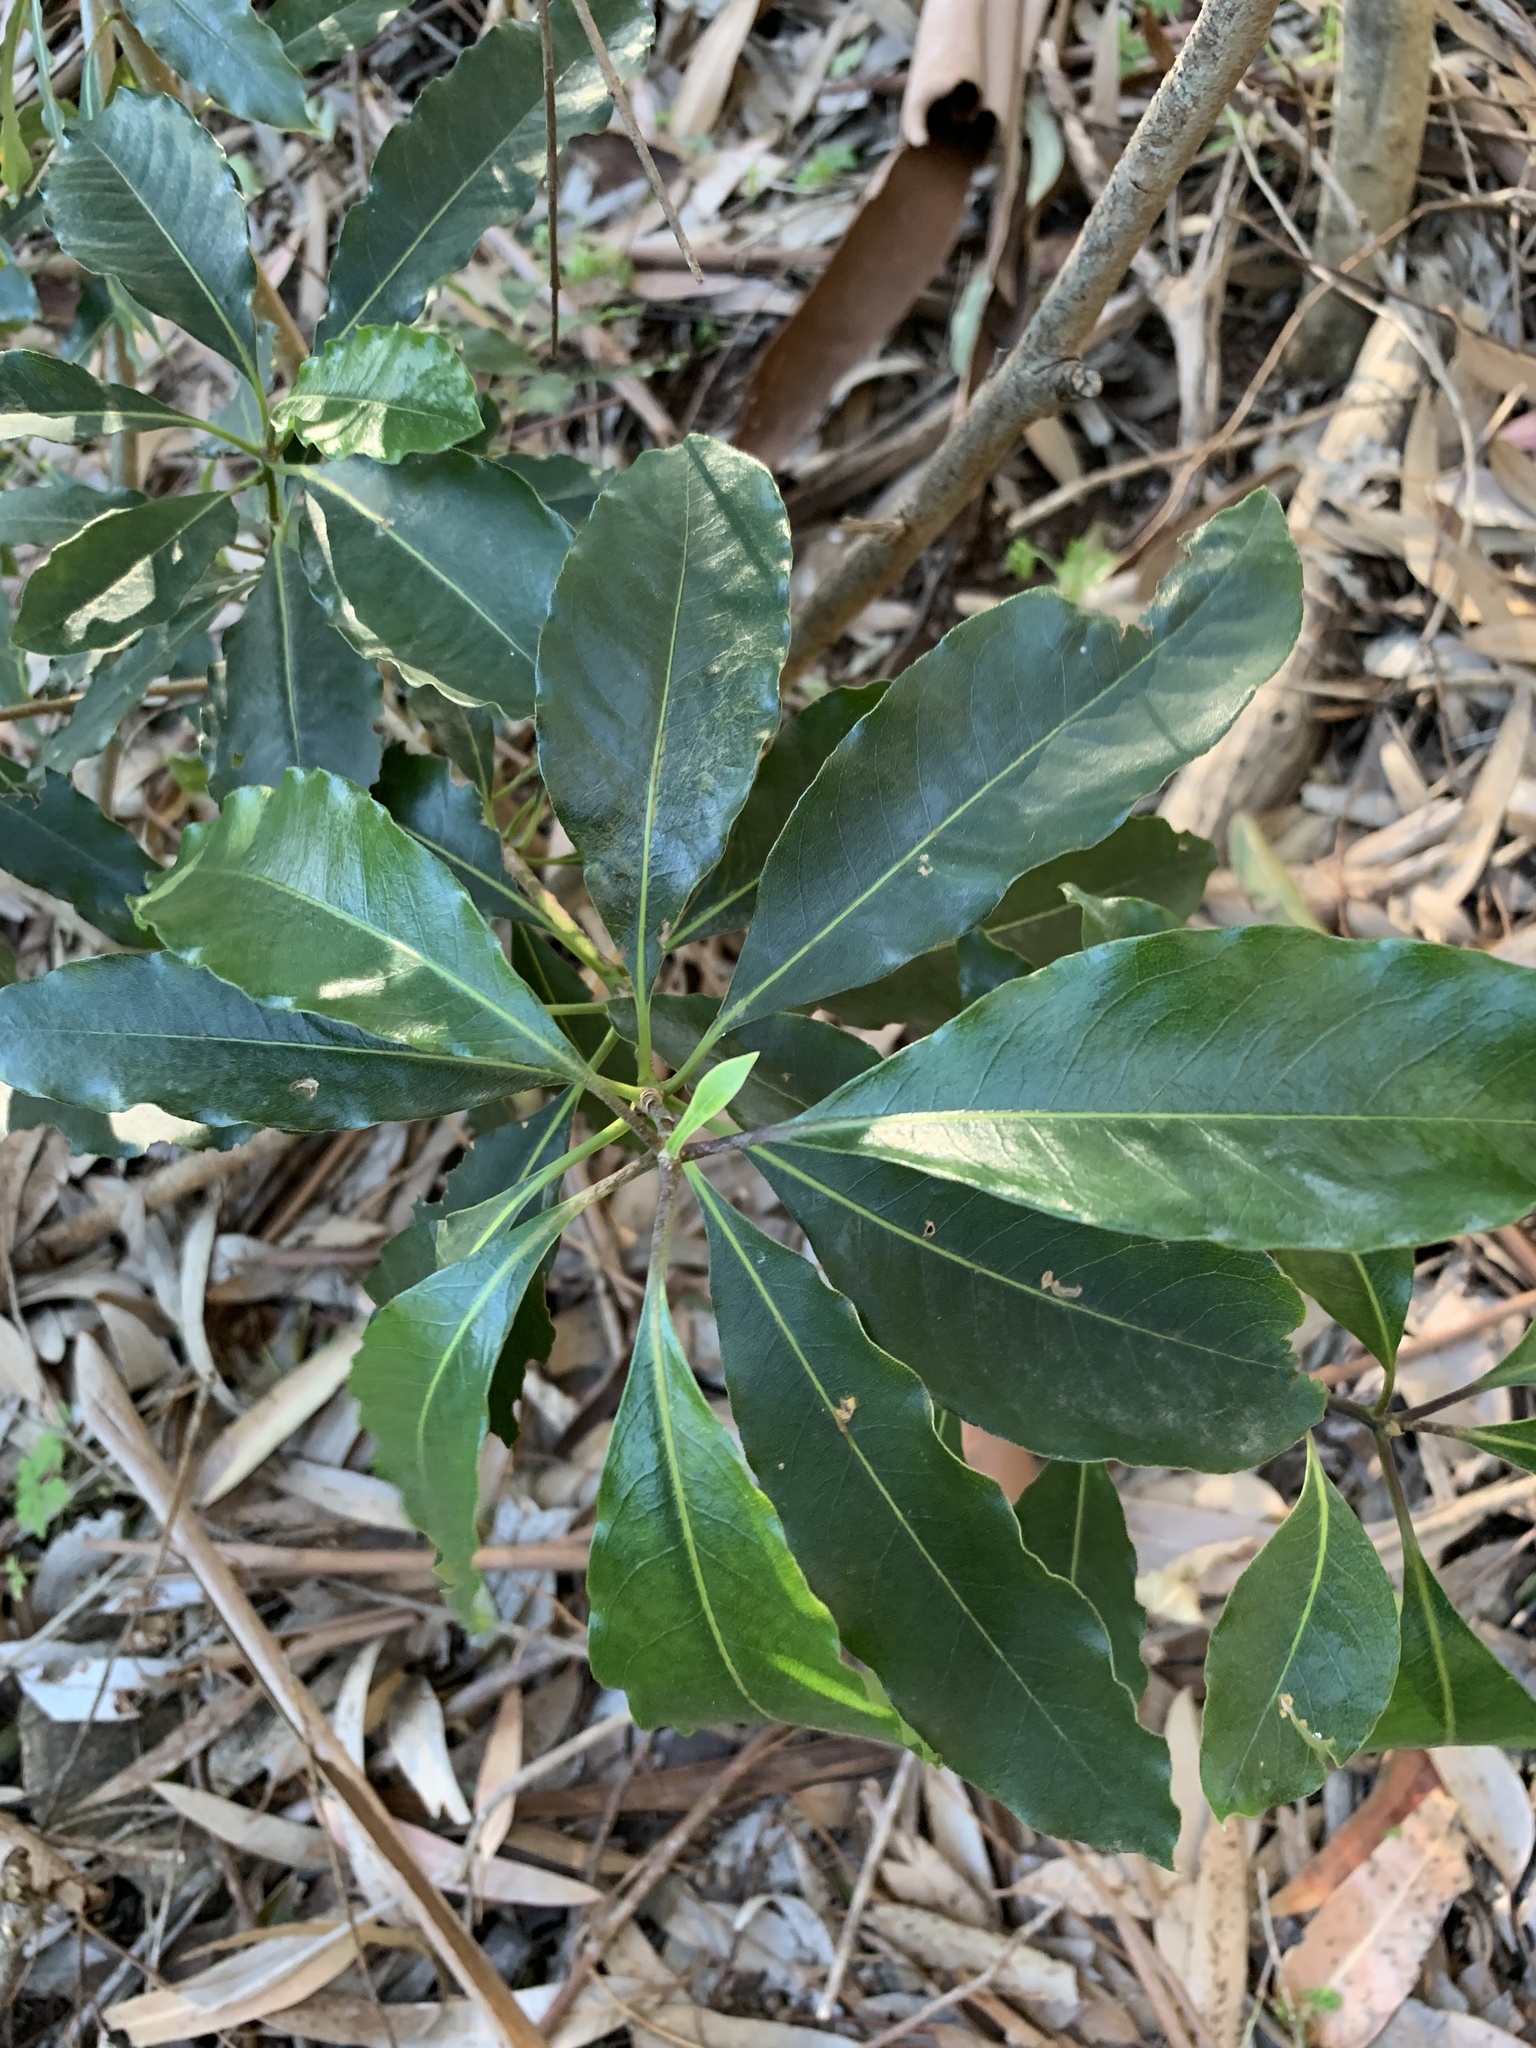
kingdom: Plantae
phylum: Tracheophyta
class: Magnoliopsida
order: Apiales
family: Pittosporaceae
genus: Pittosporum
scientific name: Pittosporum undulatum
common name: Australian cheesewood
